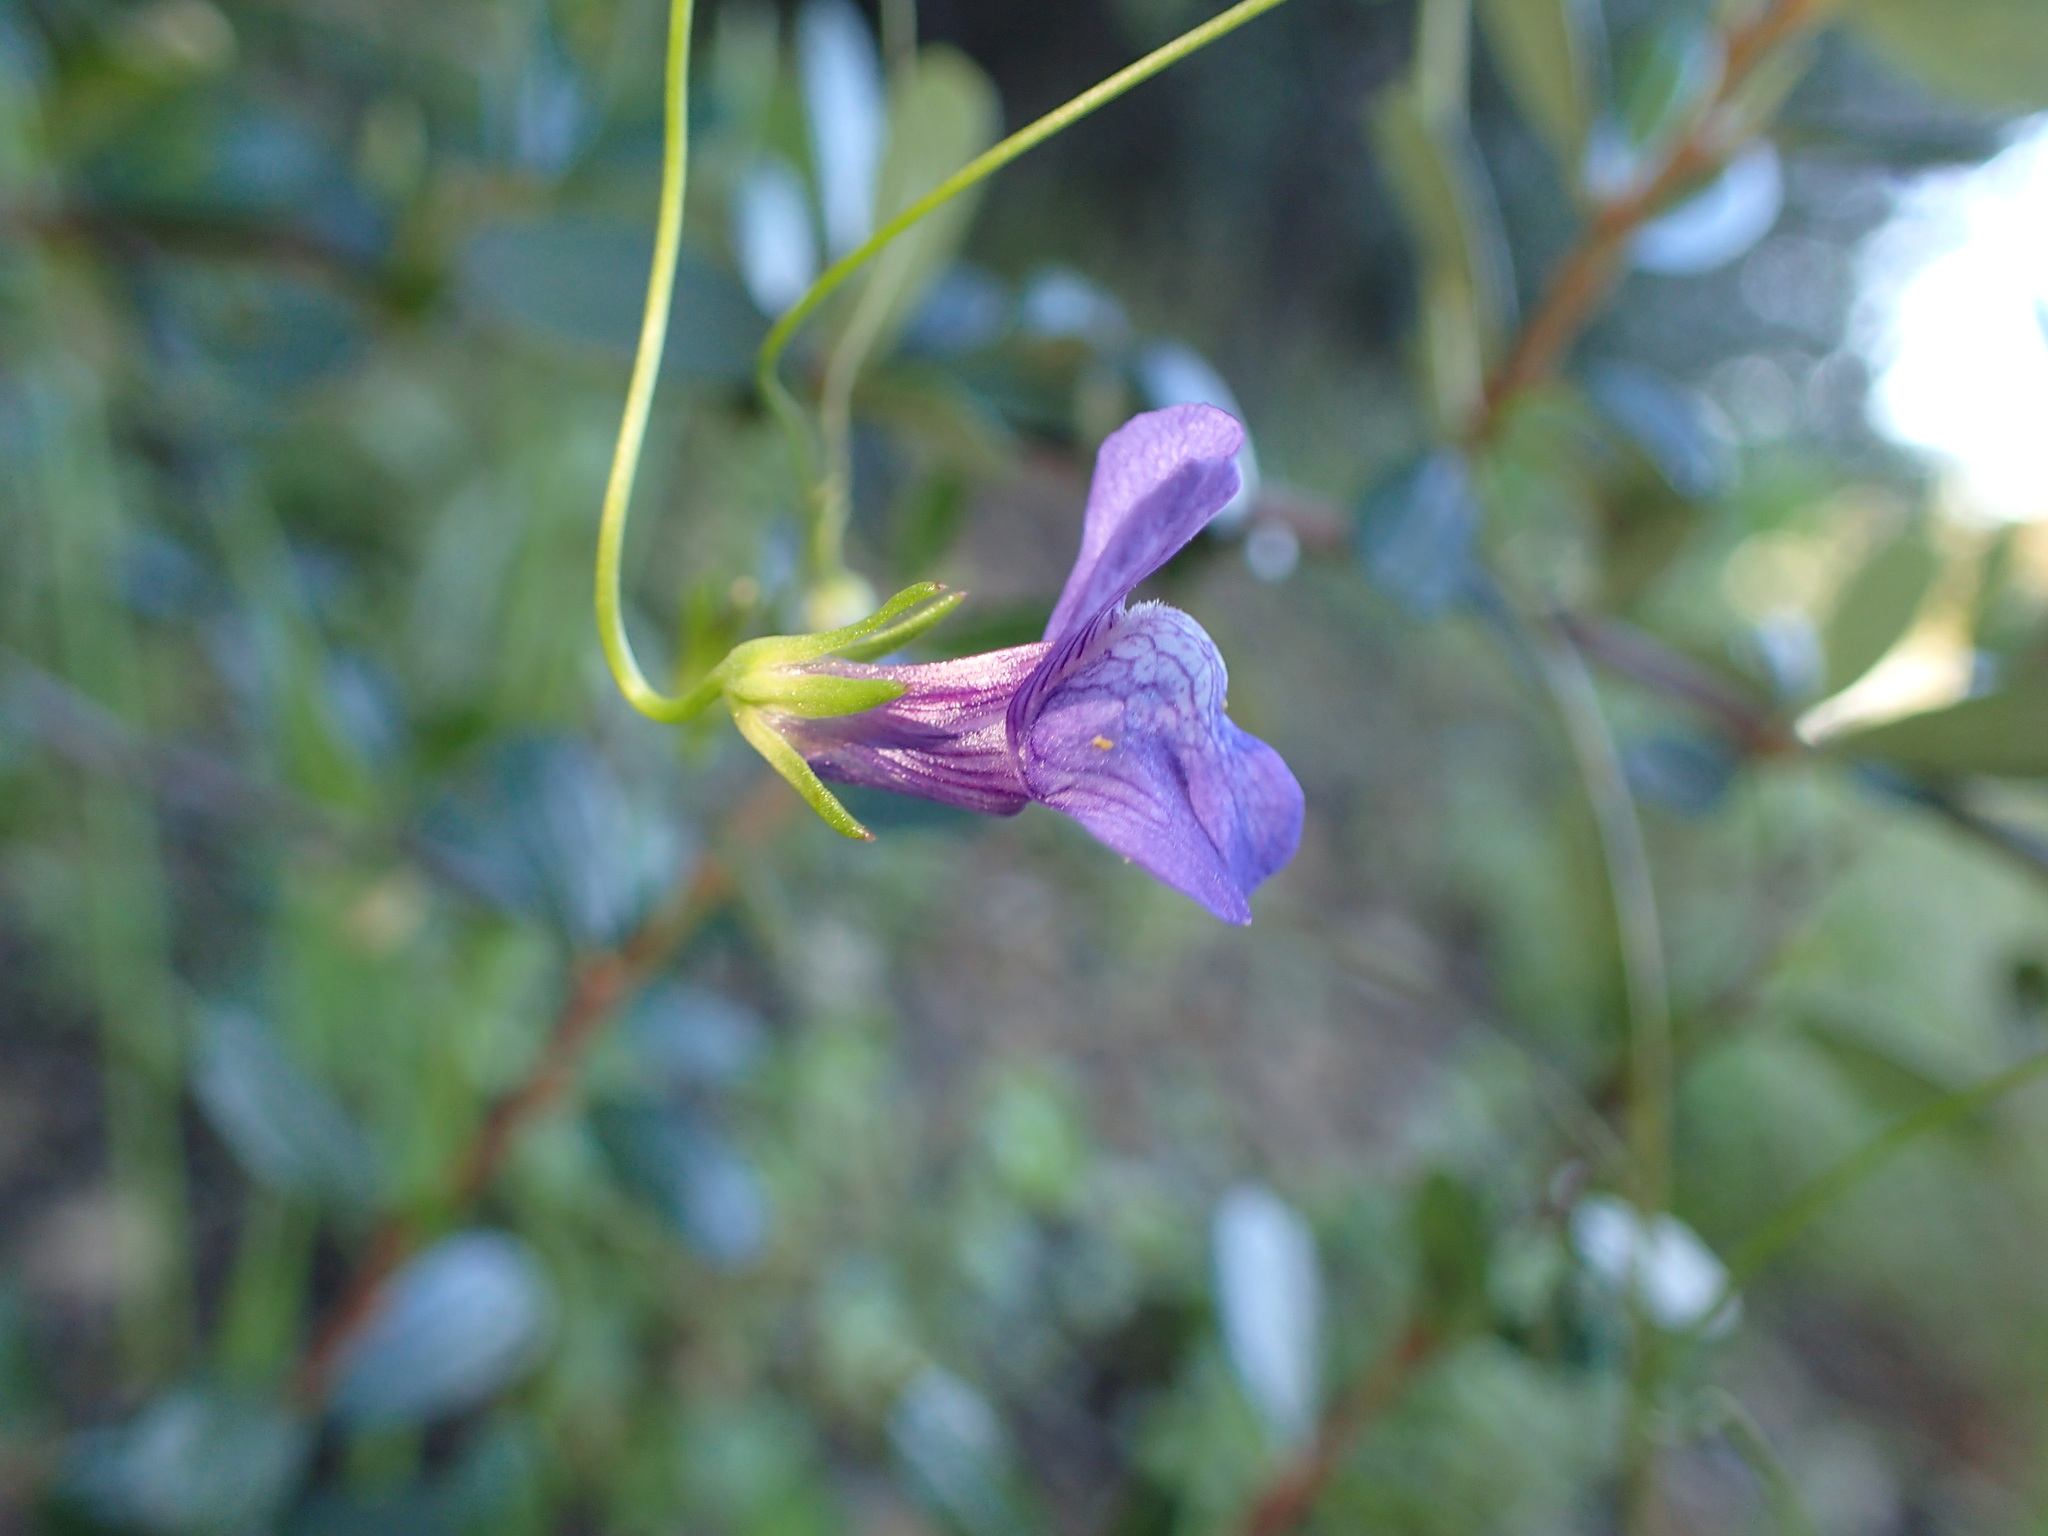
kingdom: Plantae
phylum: Tracheophyta
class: Magnoliopsida
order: Lamiales
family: Plantaginaceae
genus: Neogaerrhinum
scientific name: Neogaerrhinum strictum
